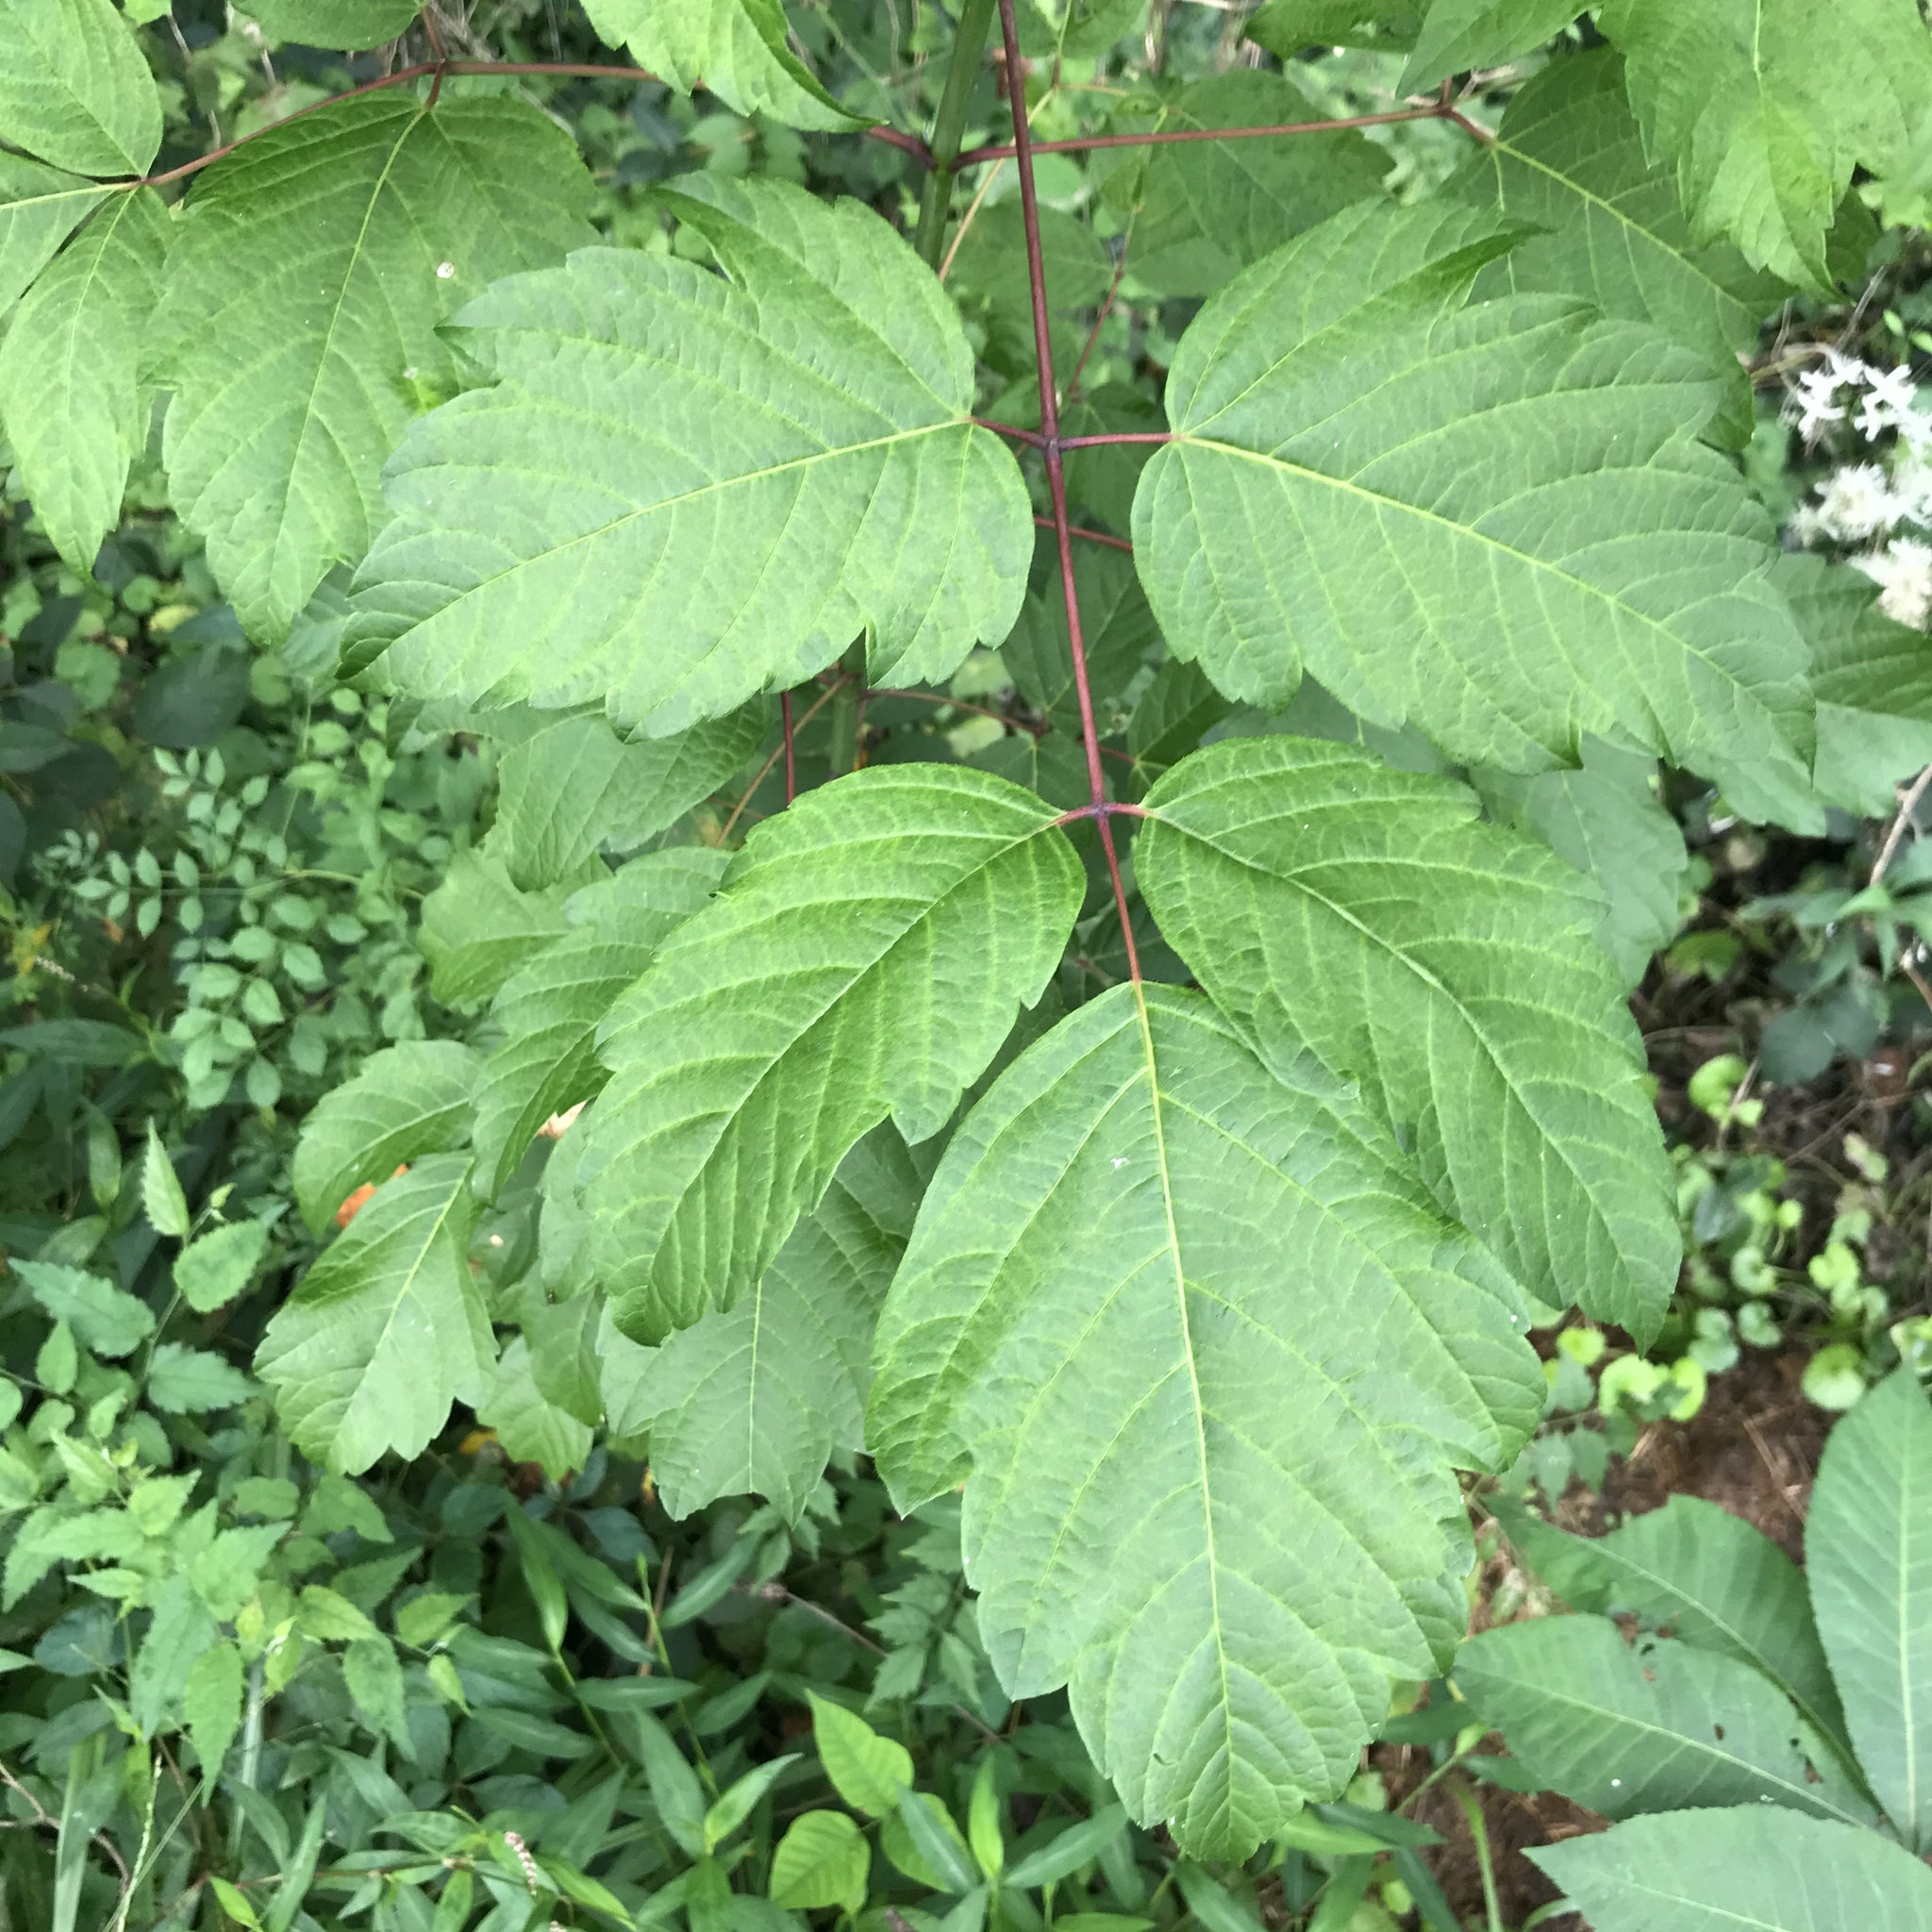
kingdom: Plantae
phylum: Tracheophyta
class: Magnoliopsida
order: Sapindales
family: Sapindaceae
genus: Acer
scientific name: Acer negundo
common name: Ashleaf maple
